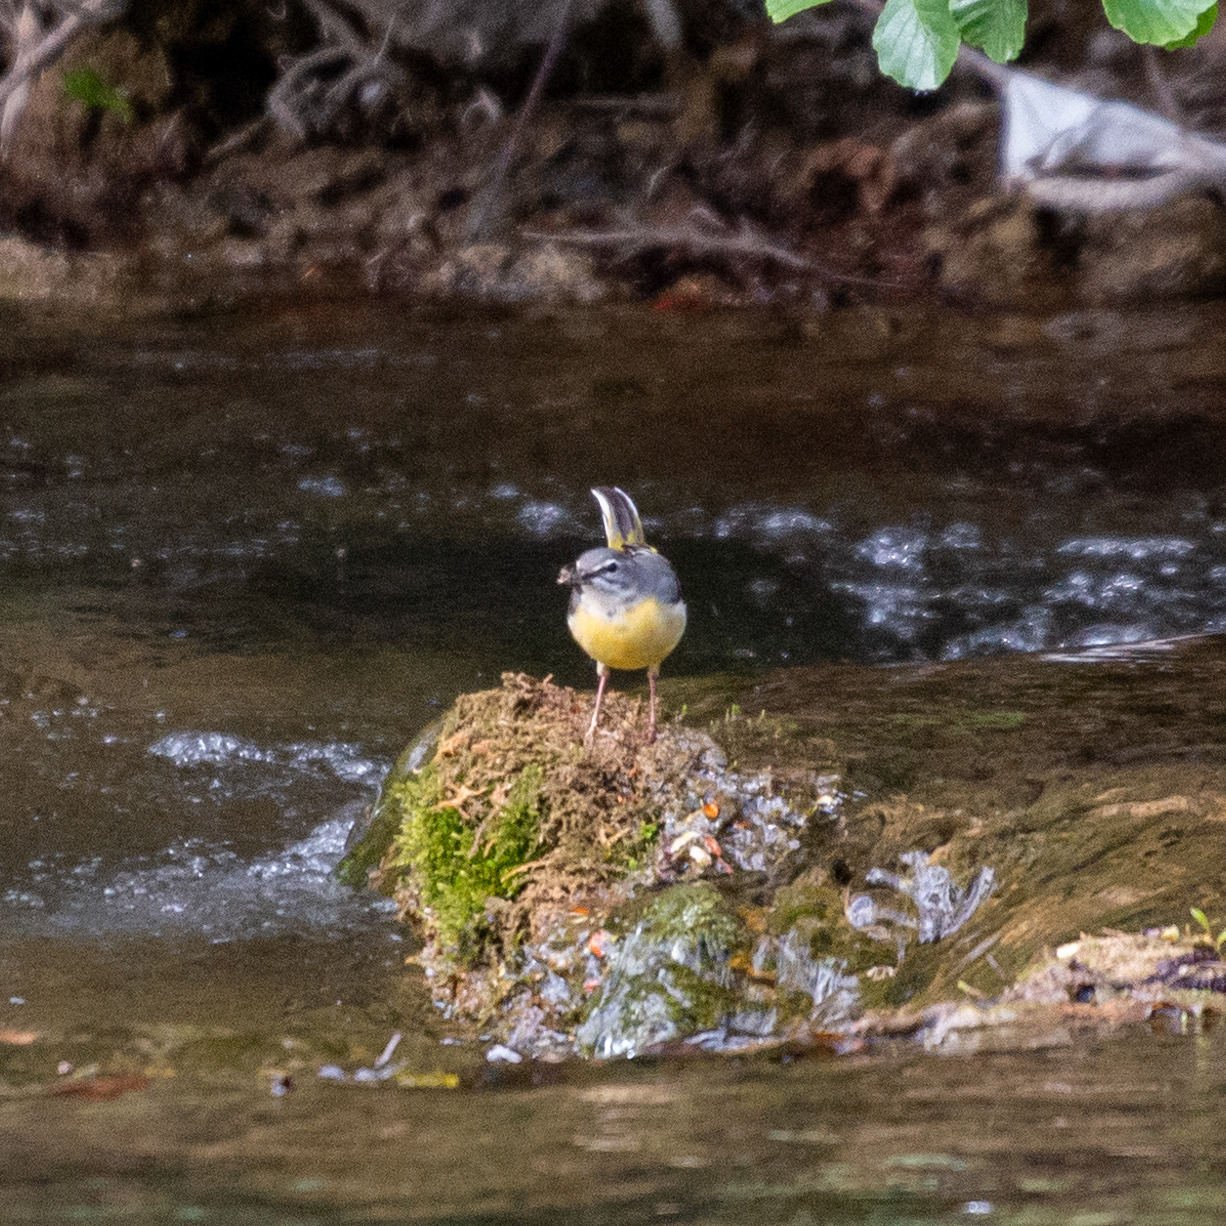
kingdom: Animalia
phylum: Chordata
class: Aves
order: Passeriformes
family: Motacillidae
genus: Motacilla
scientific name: Motacilla cinerea
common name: Grey wagtail
